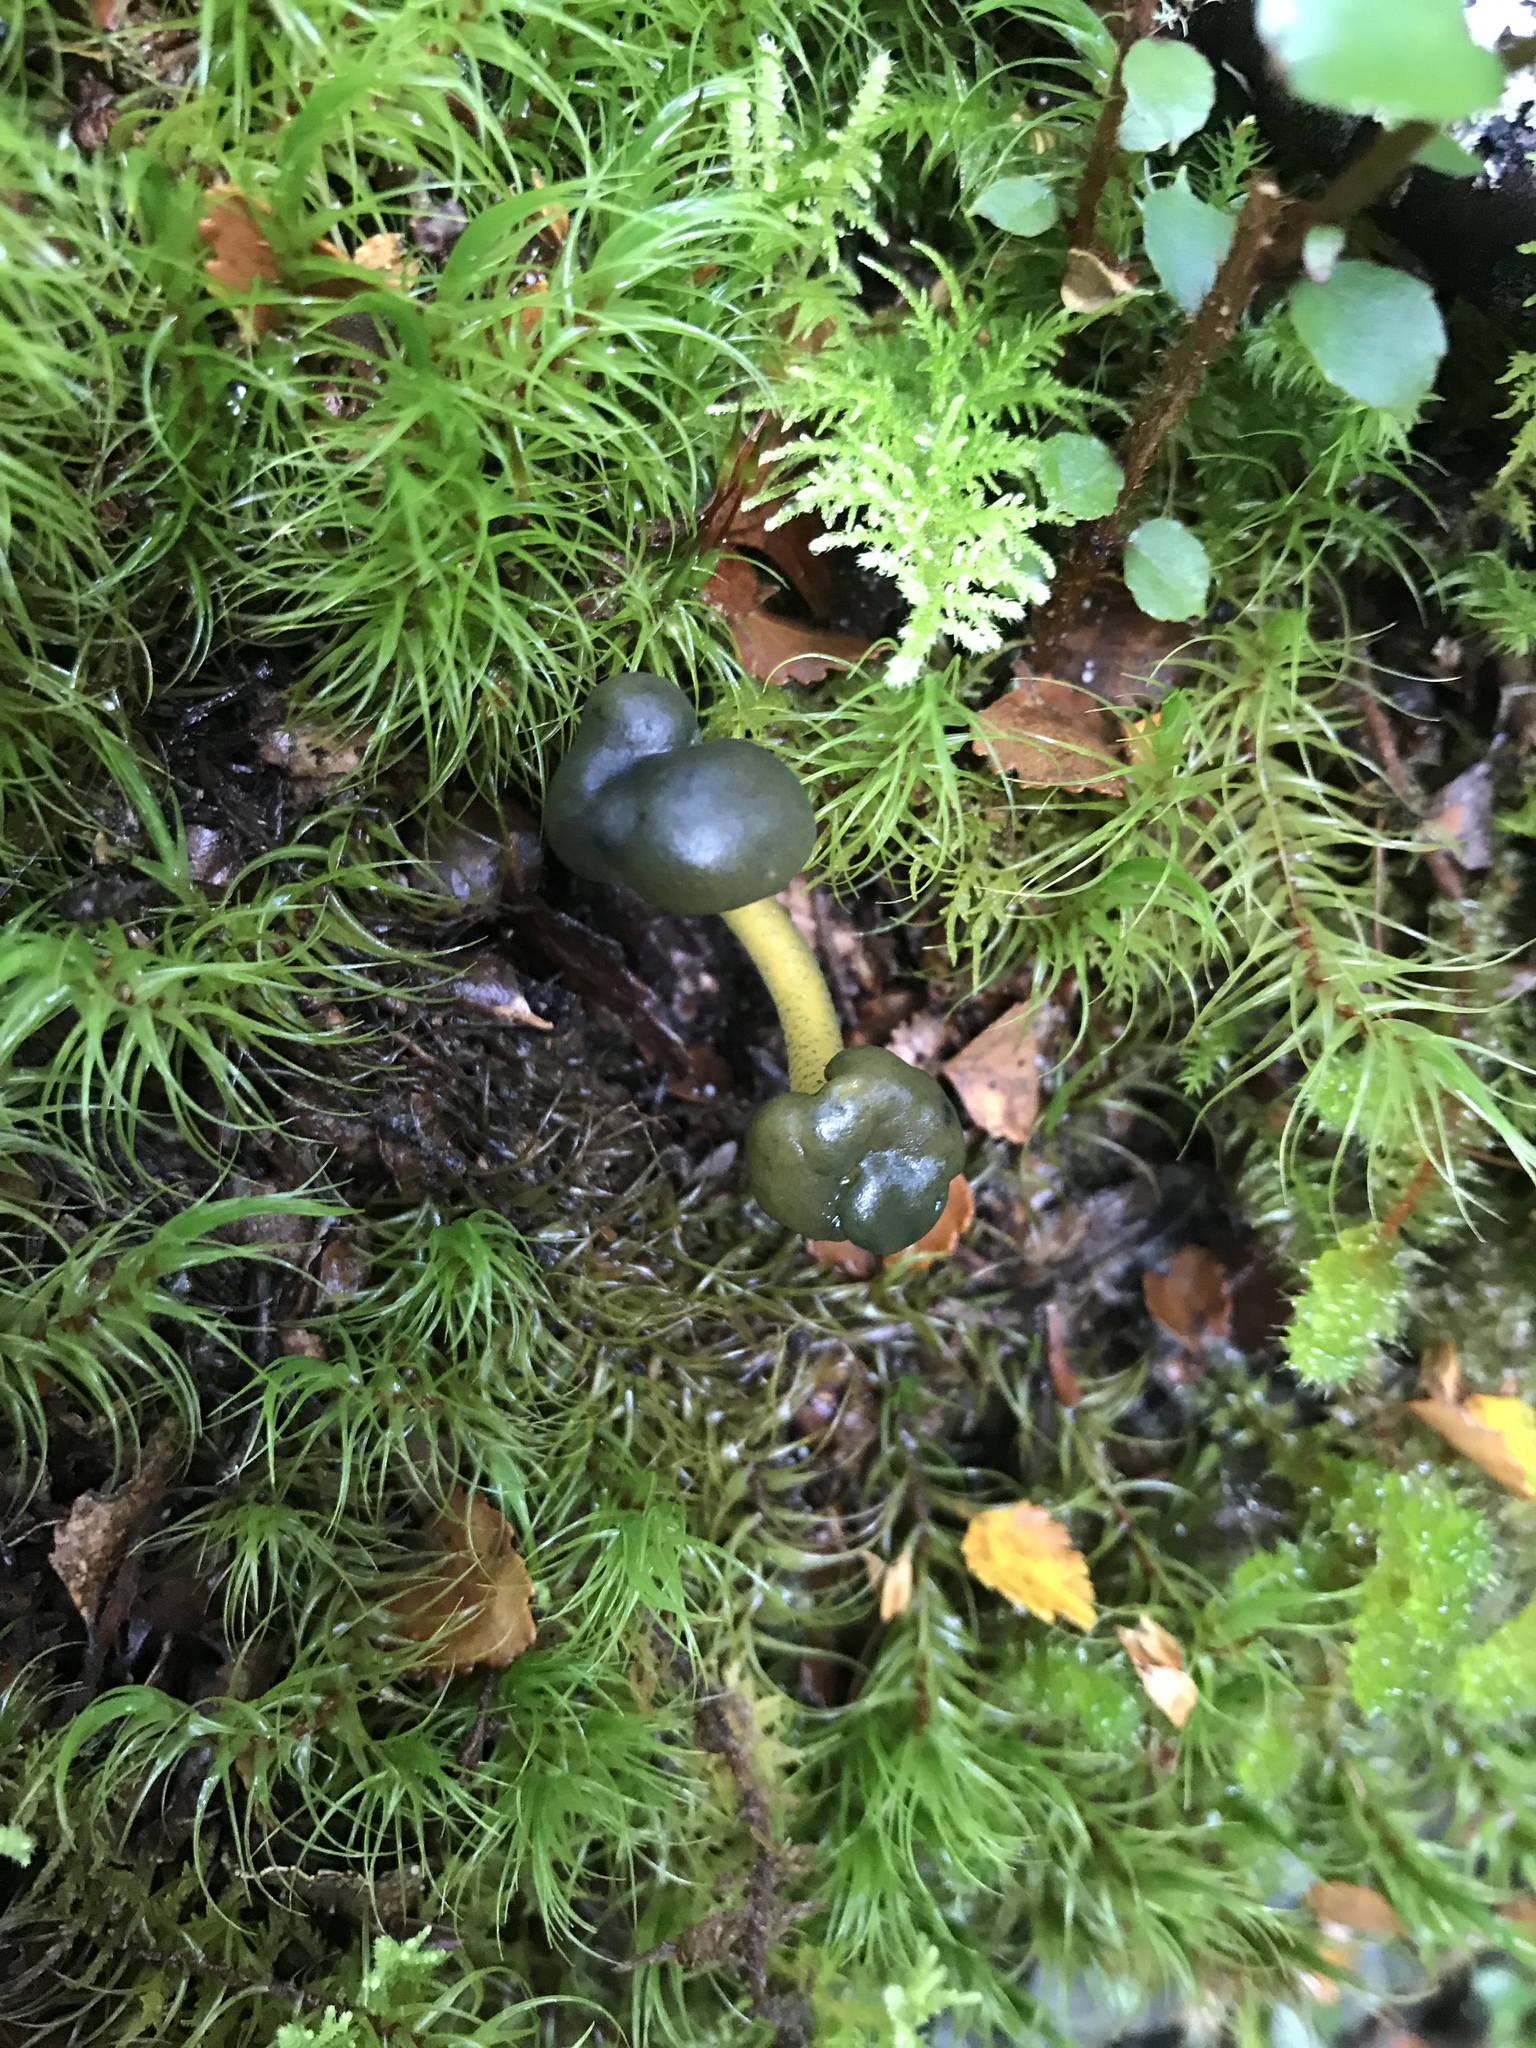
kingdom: Fungi
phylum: Ascomycota
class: Leotiomycetes
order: Leotiales
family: Leotiaceae
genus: Leotia
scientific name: Leotia lubrica
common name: Jellybaby
